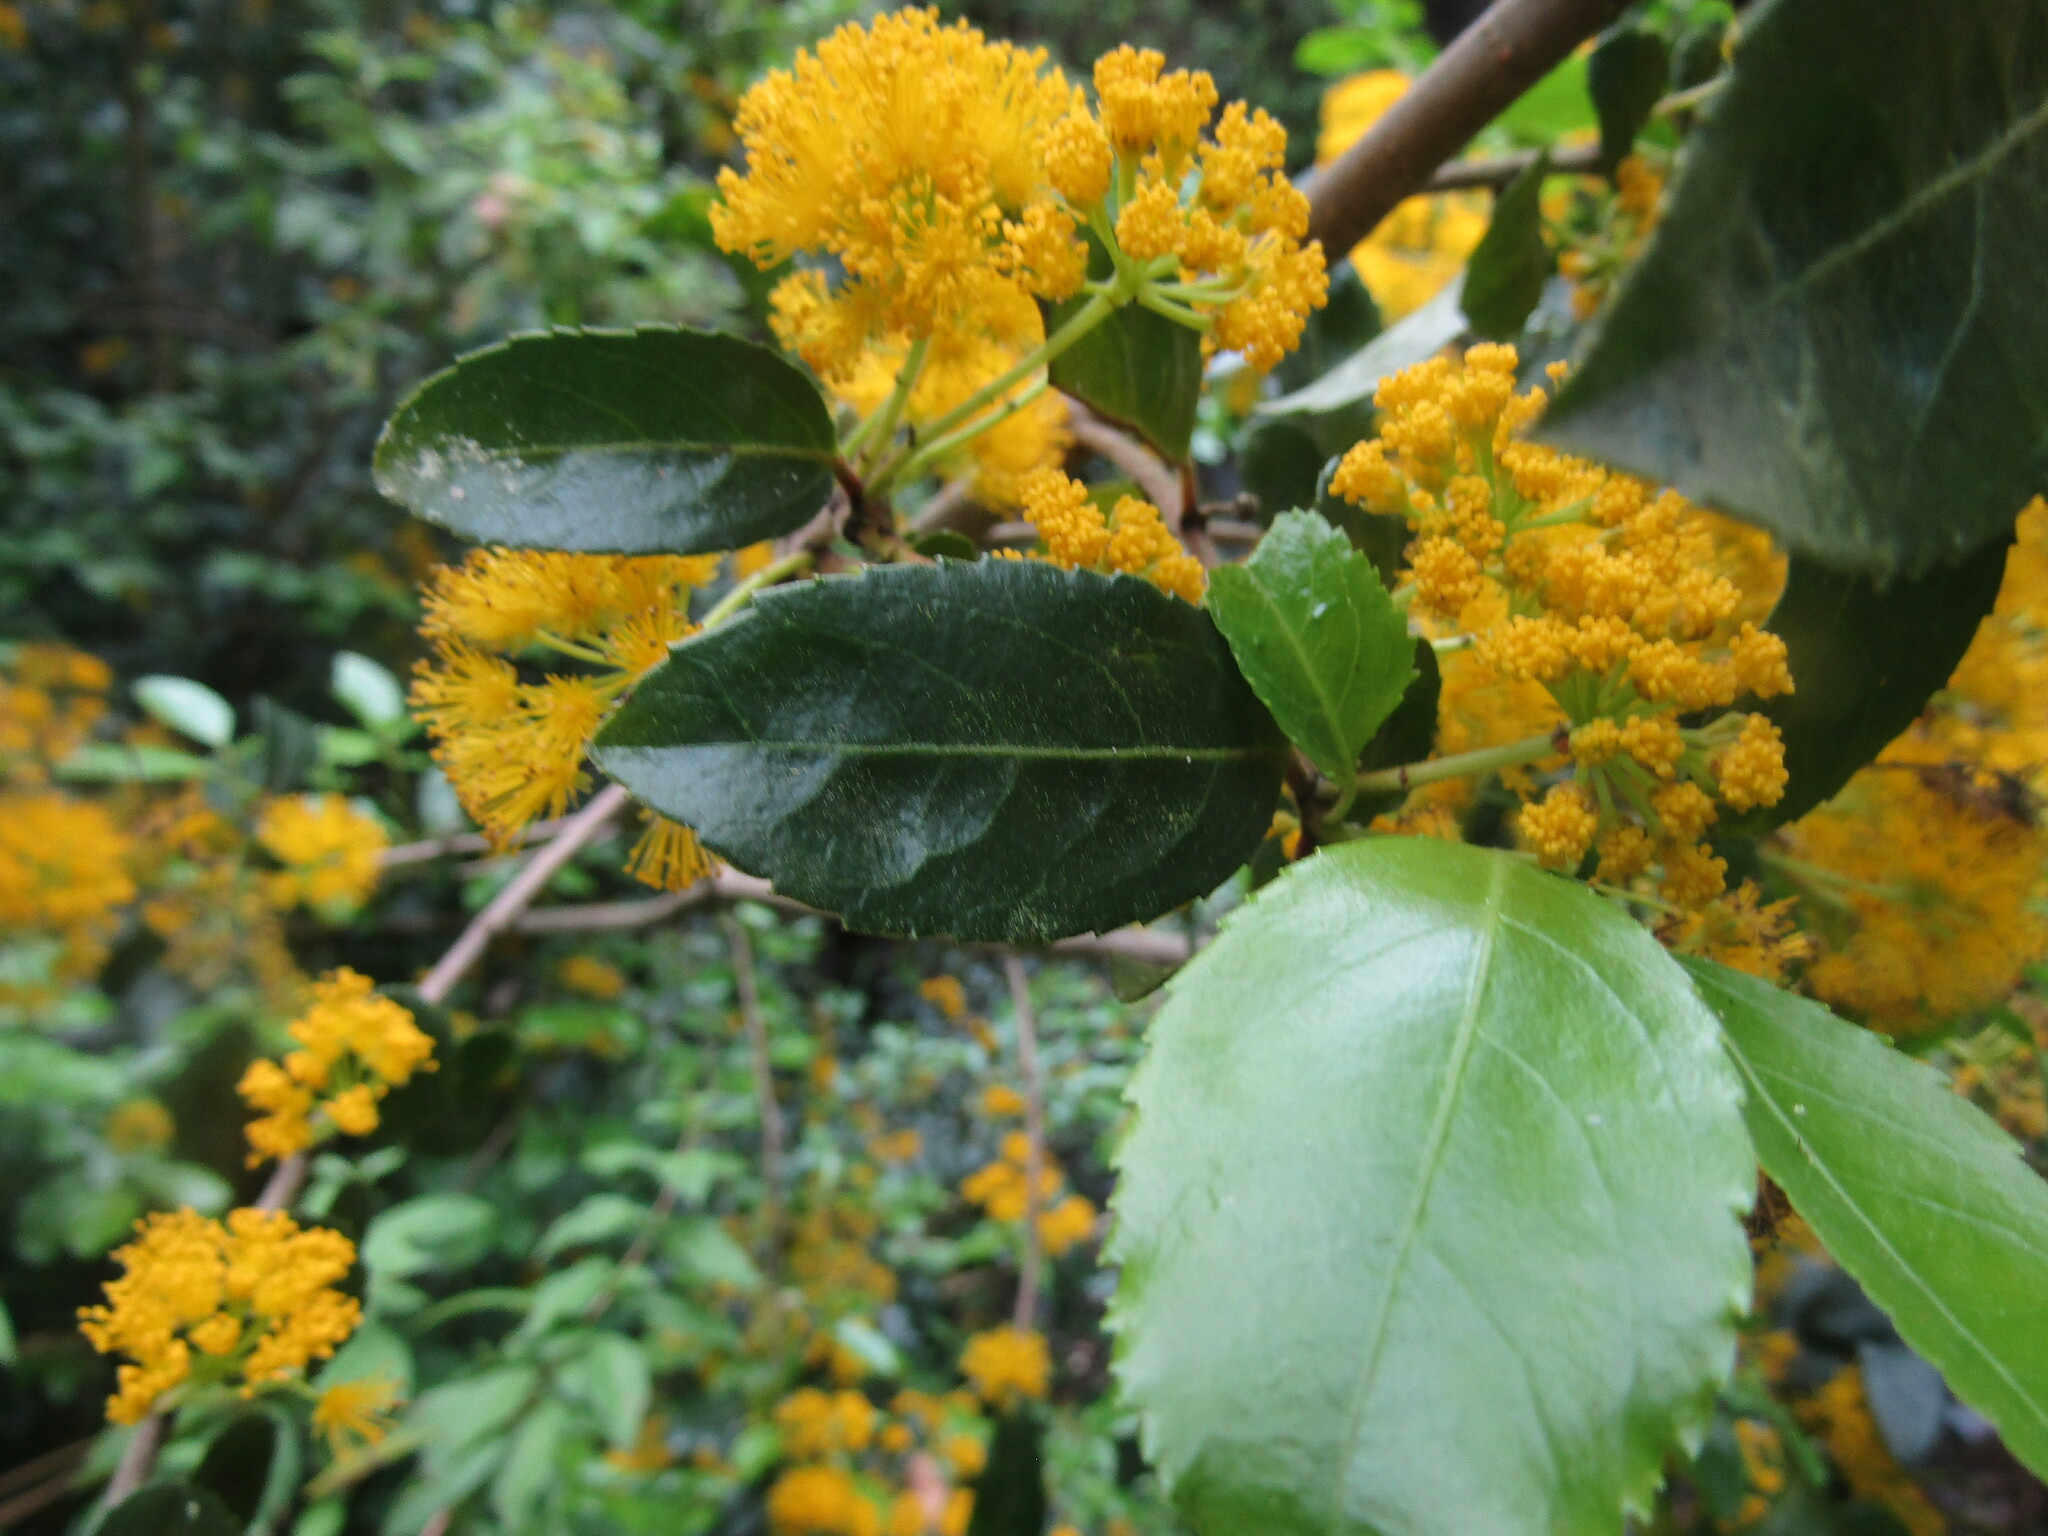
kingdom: Plantae
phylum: Tracheophyta
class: Magnoliopsida
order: Malpighiales
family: Salicaceae
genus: Azara
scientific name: Azara serrata
